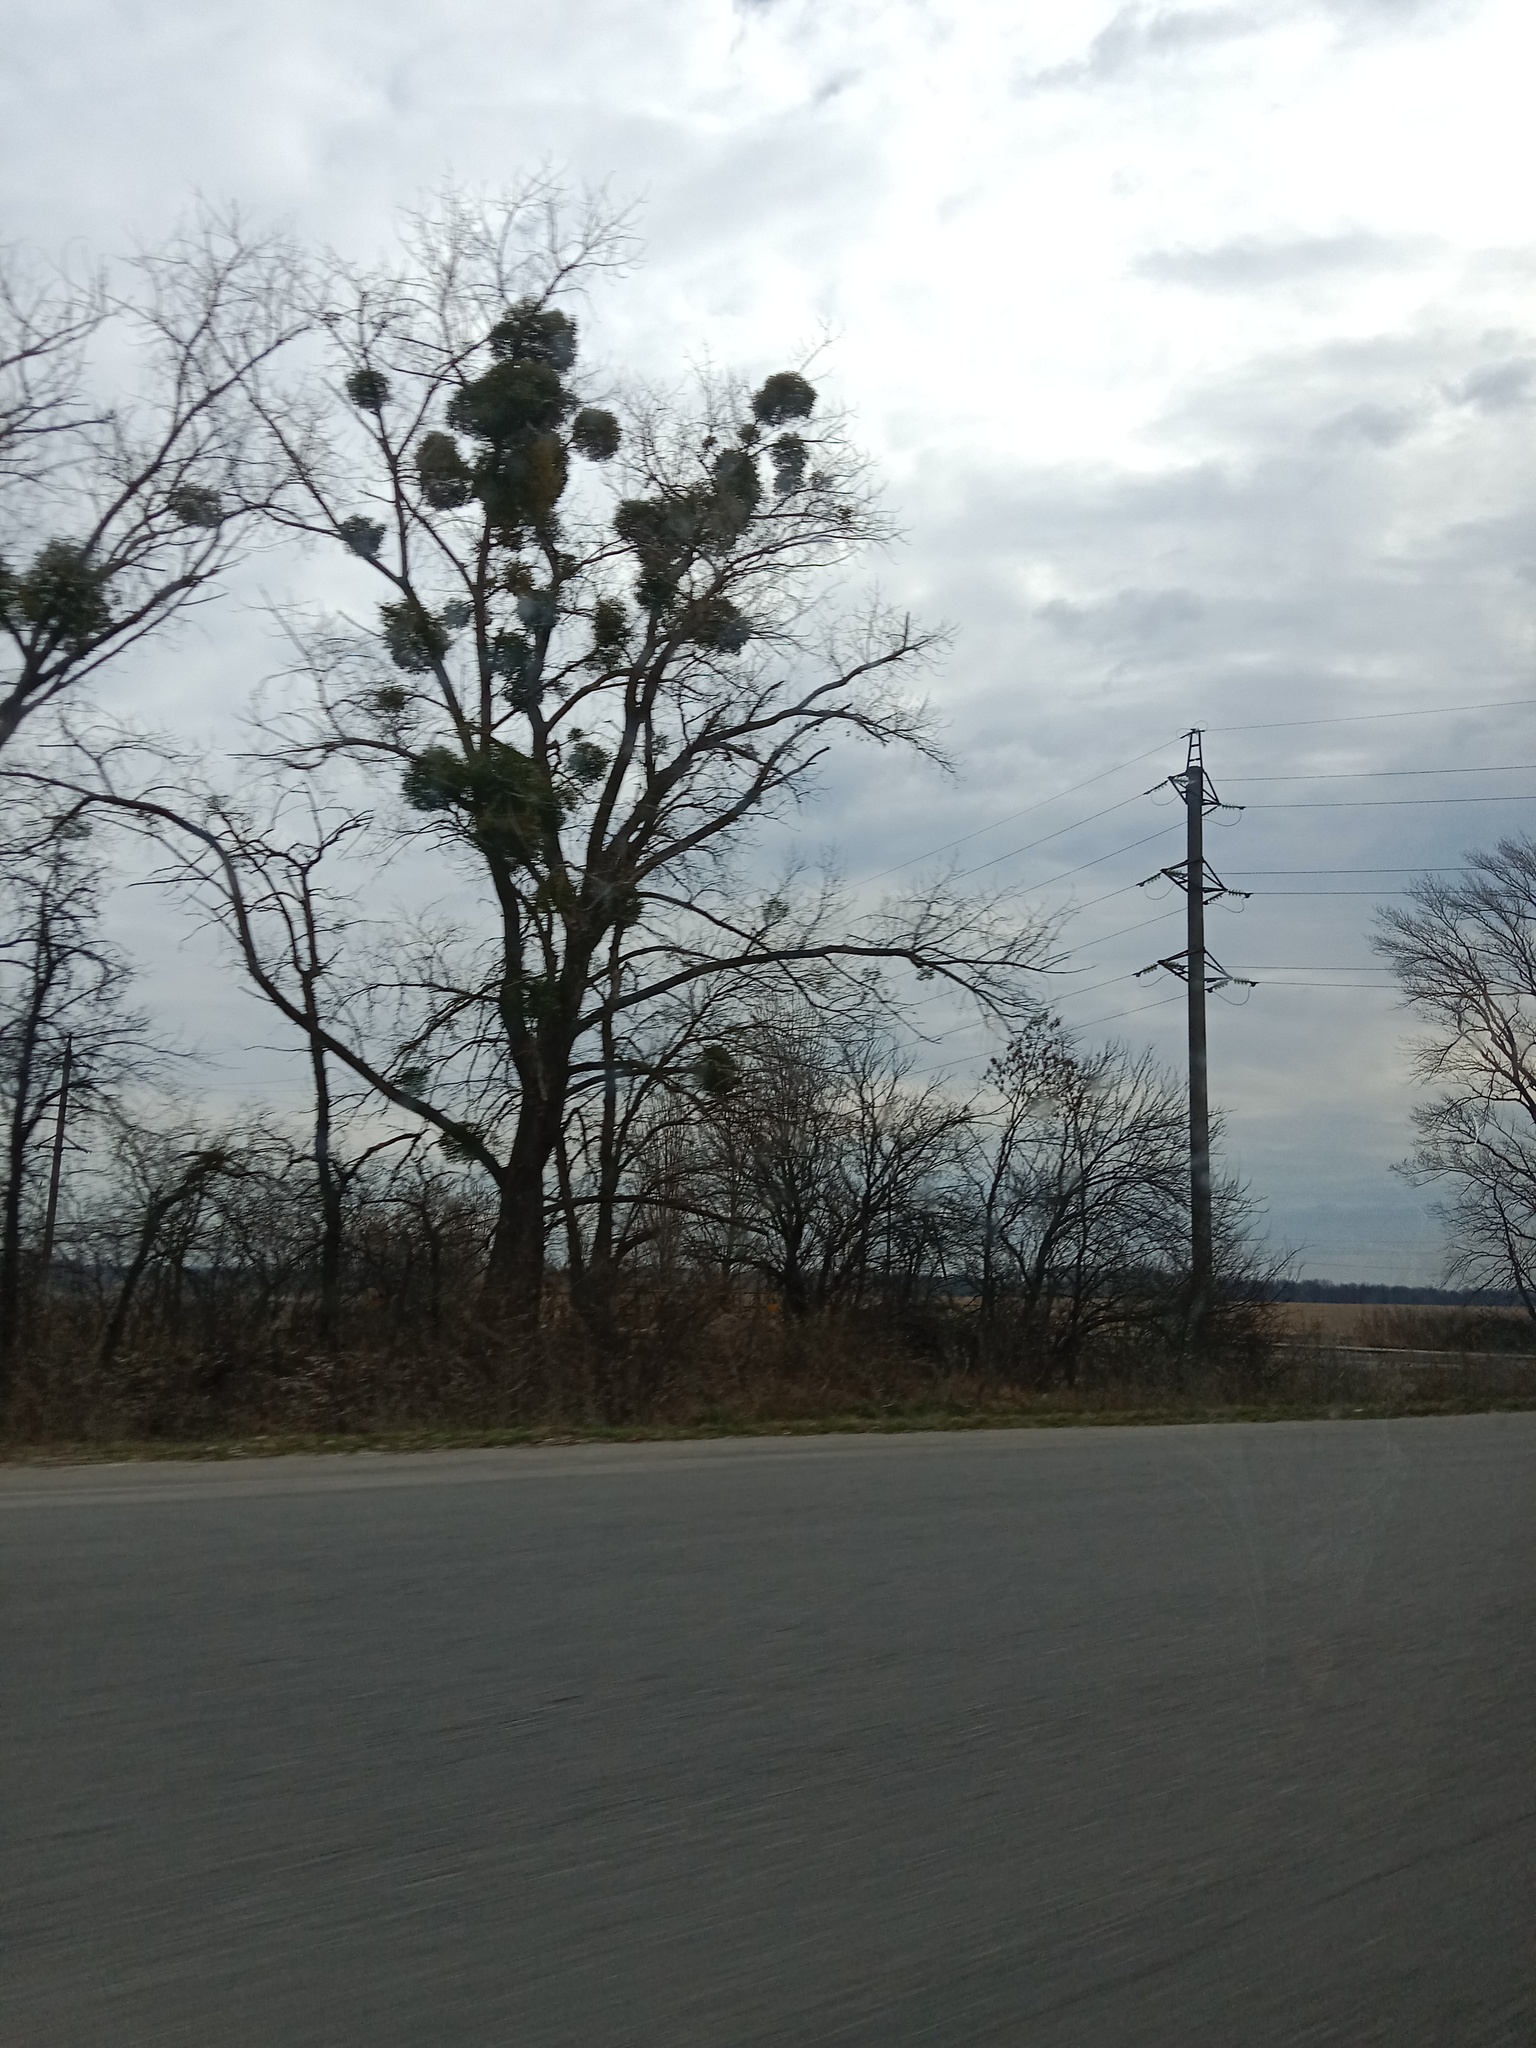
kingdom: Plantae
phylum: Tracheophyta
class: Magnoliopsida
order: Santalales
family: Viscaceae
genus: Viscum
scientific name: Viscum album
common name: Mistletoe
